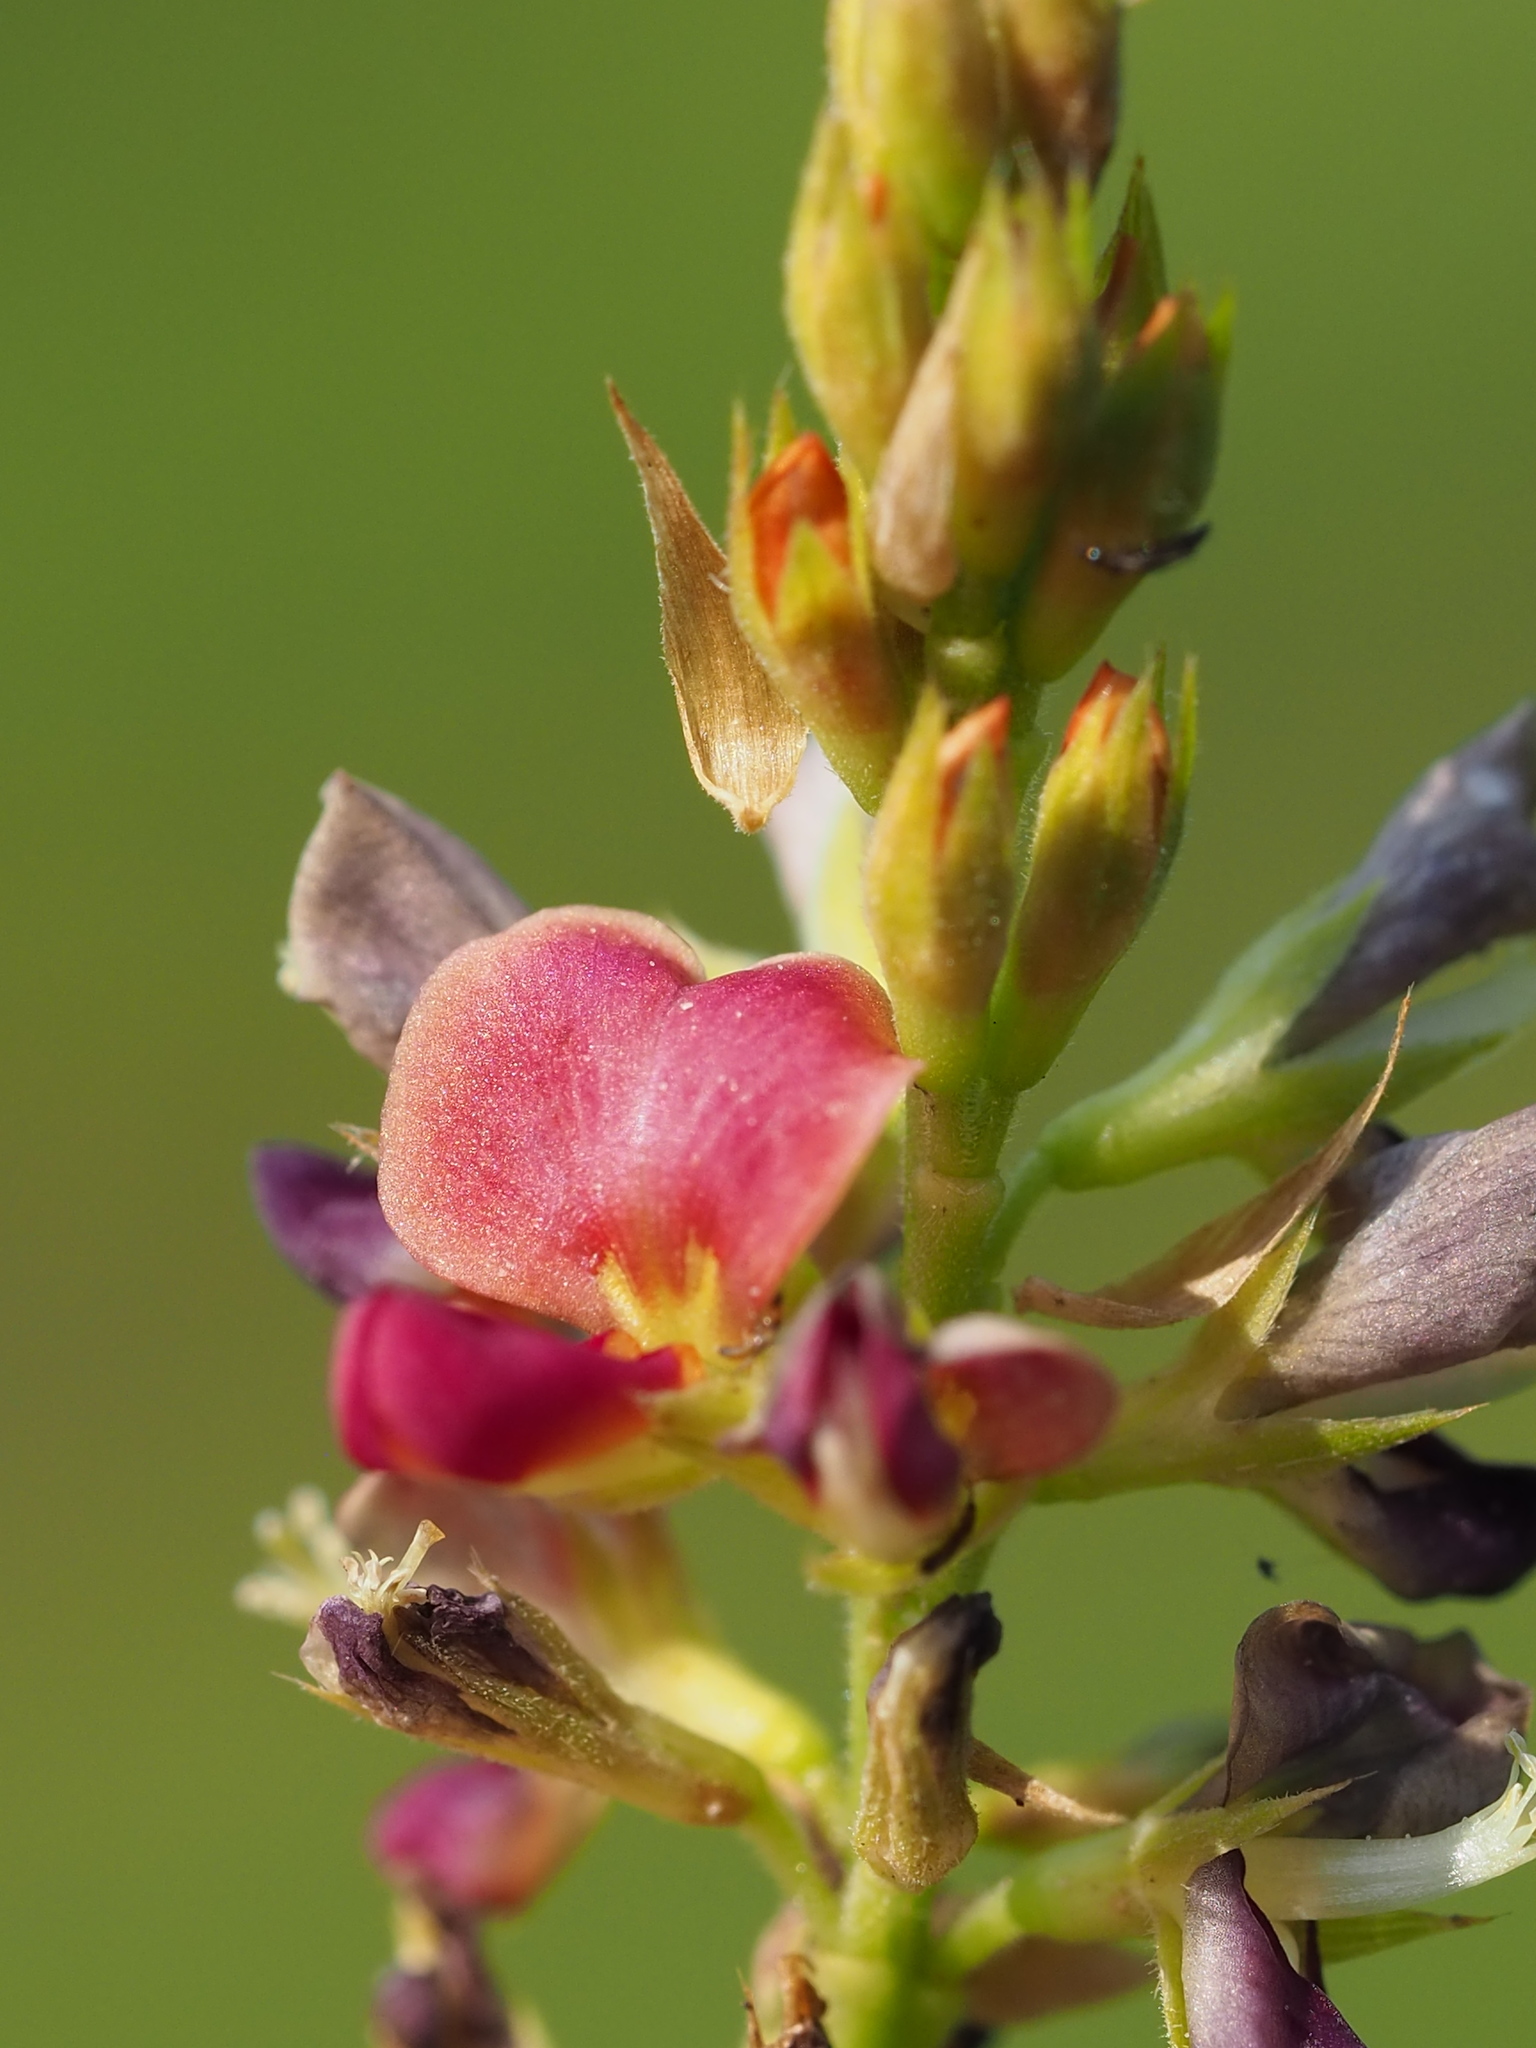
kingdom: Plantae
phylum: Tracheophyta
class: Magnoliopsida
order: Fabales
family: Fabaceae
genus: Alysicarpus
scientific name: Alysicarpus vaginalis
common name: White moneywort
